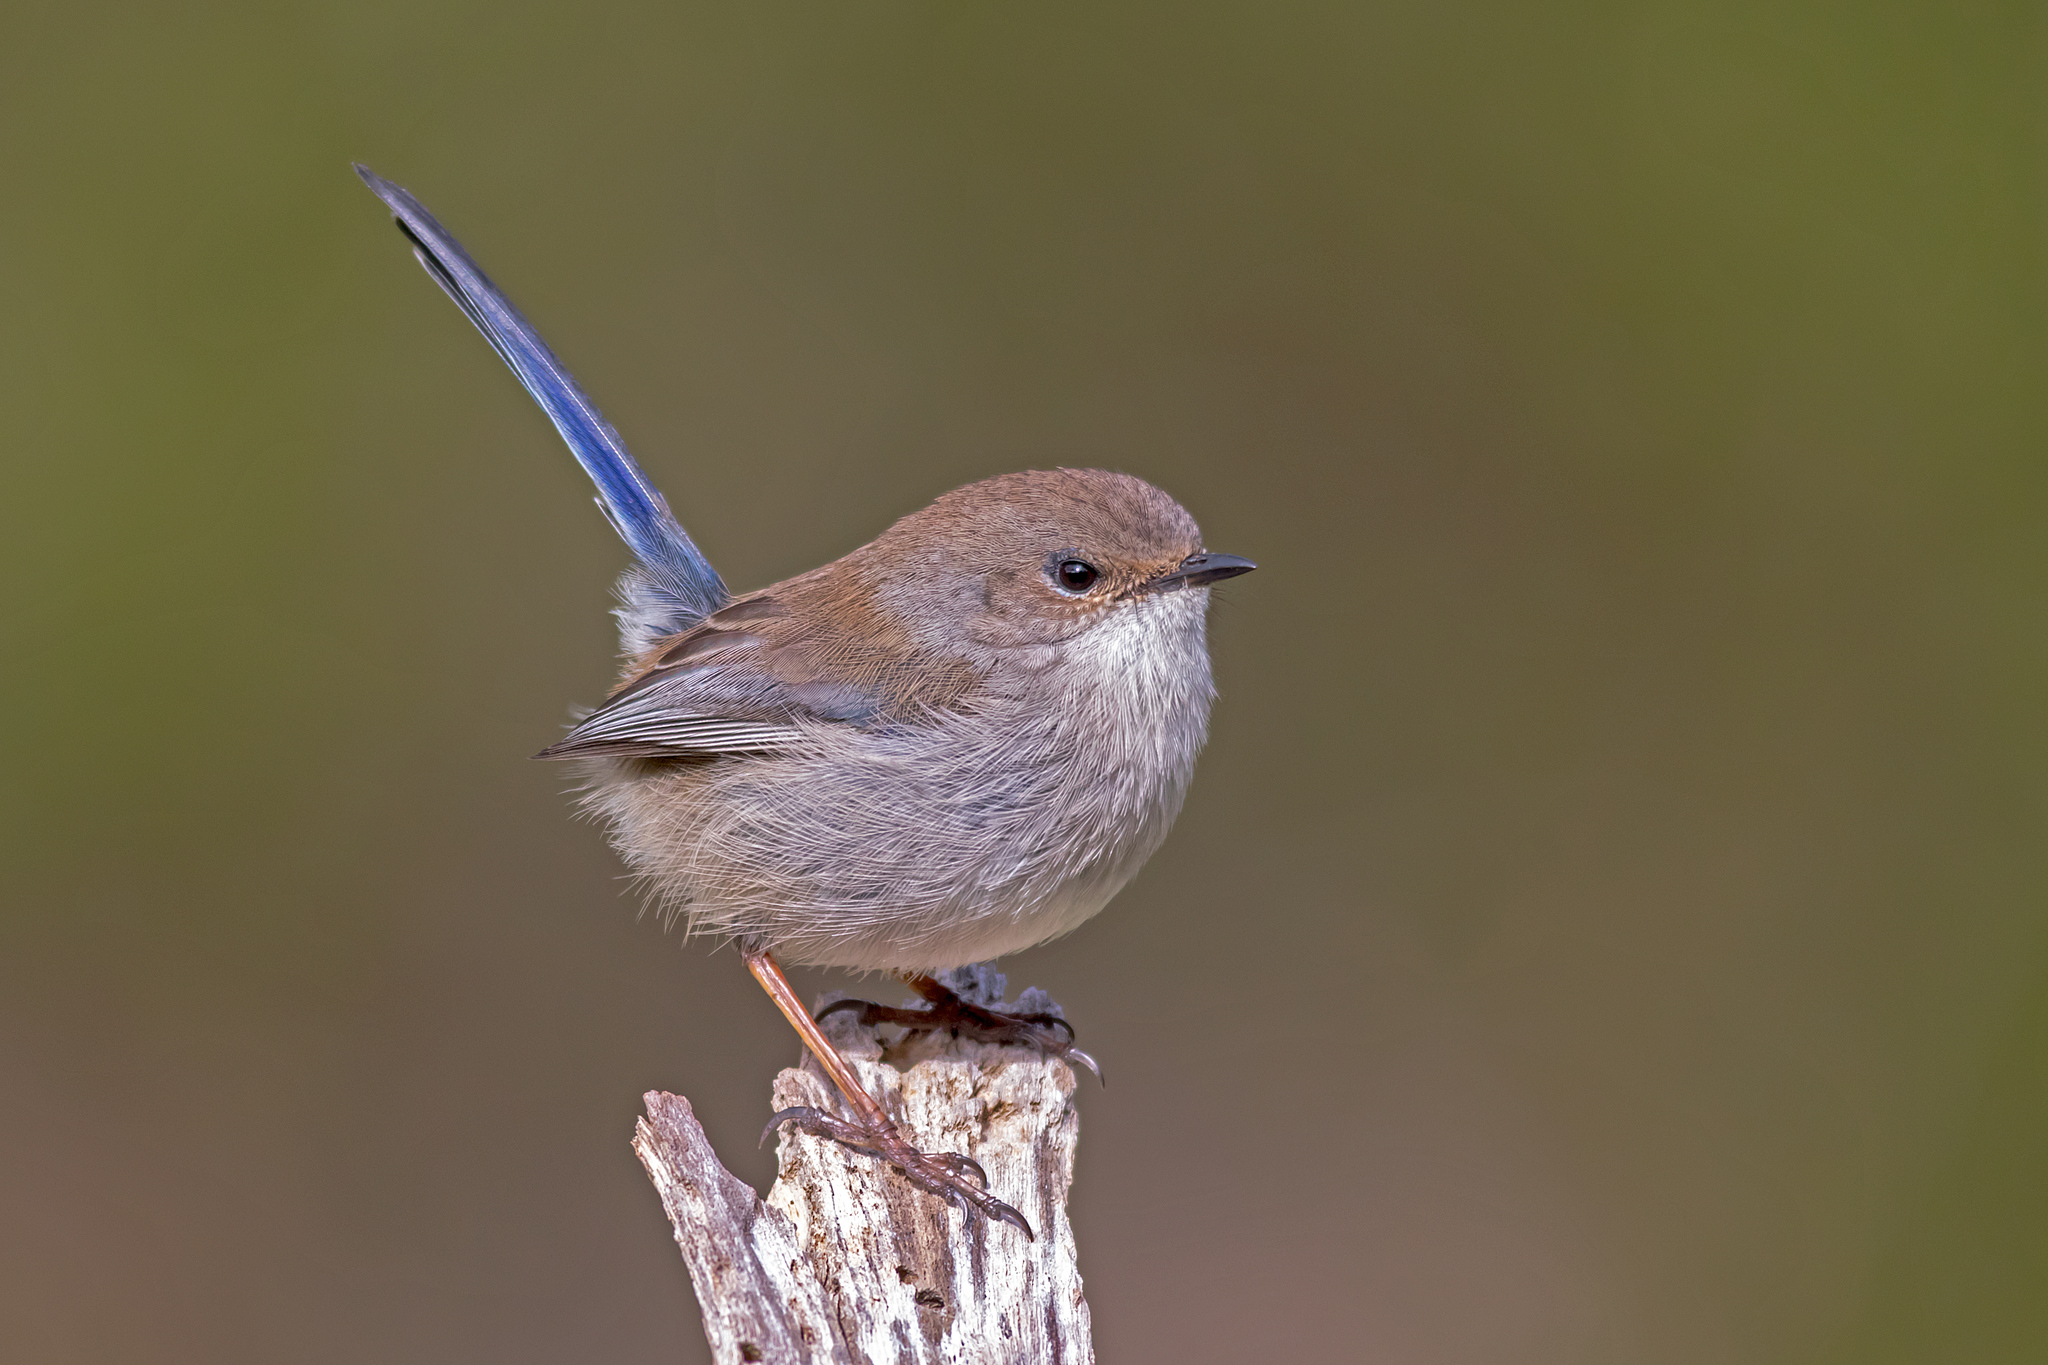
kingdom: Animalia
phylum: Chordata
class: Aves
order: Passeriformes
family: Maluridae
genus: Malurus
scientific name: Malurus cyaneus
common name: Superb fairywren
